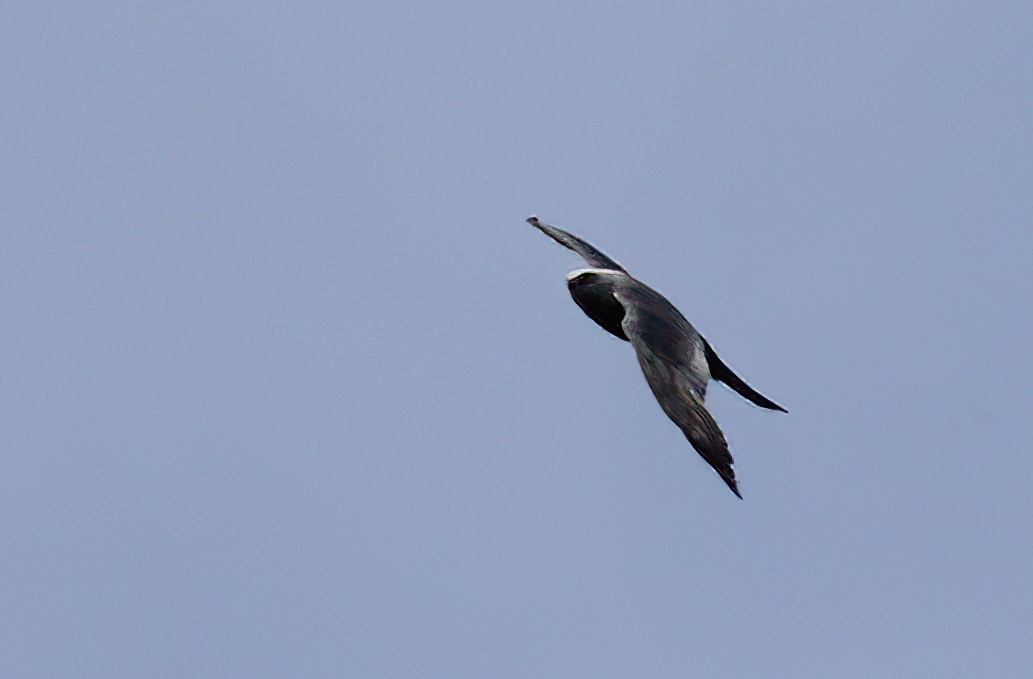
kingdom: Animalia
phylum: Chordata
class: Aves
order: Accipitriformes
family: Accipitridae
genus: Ictinia
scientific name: Ictinia mississippiensis
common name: Mississippi kite
